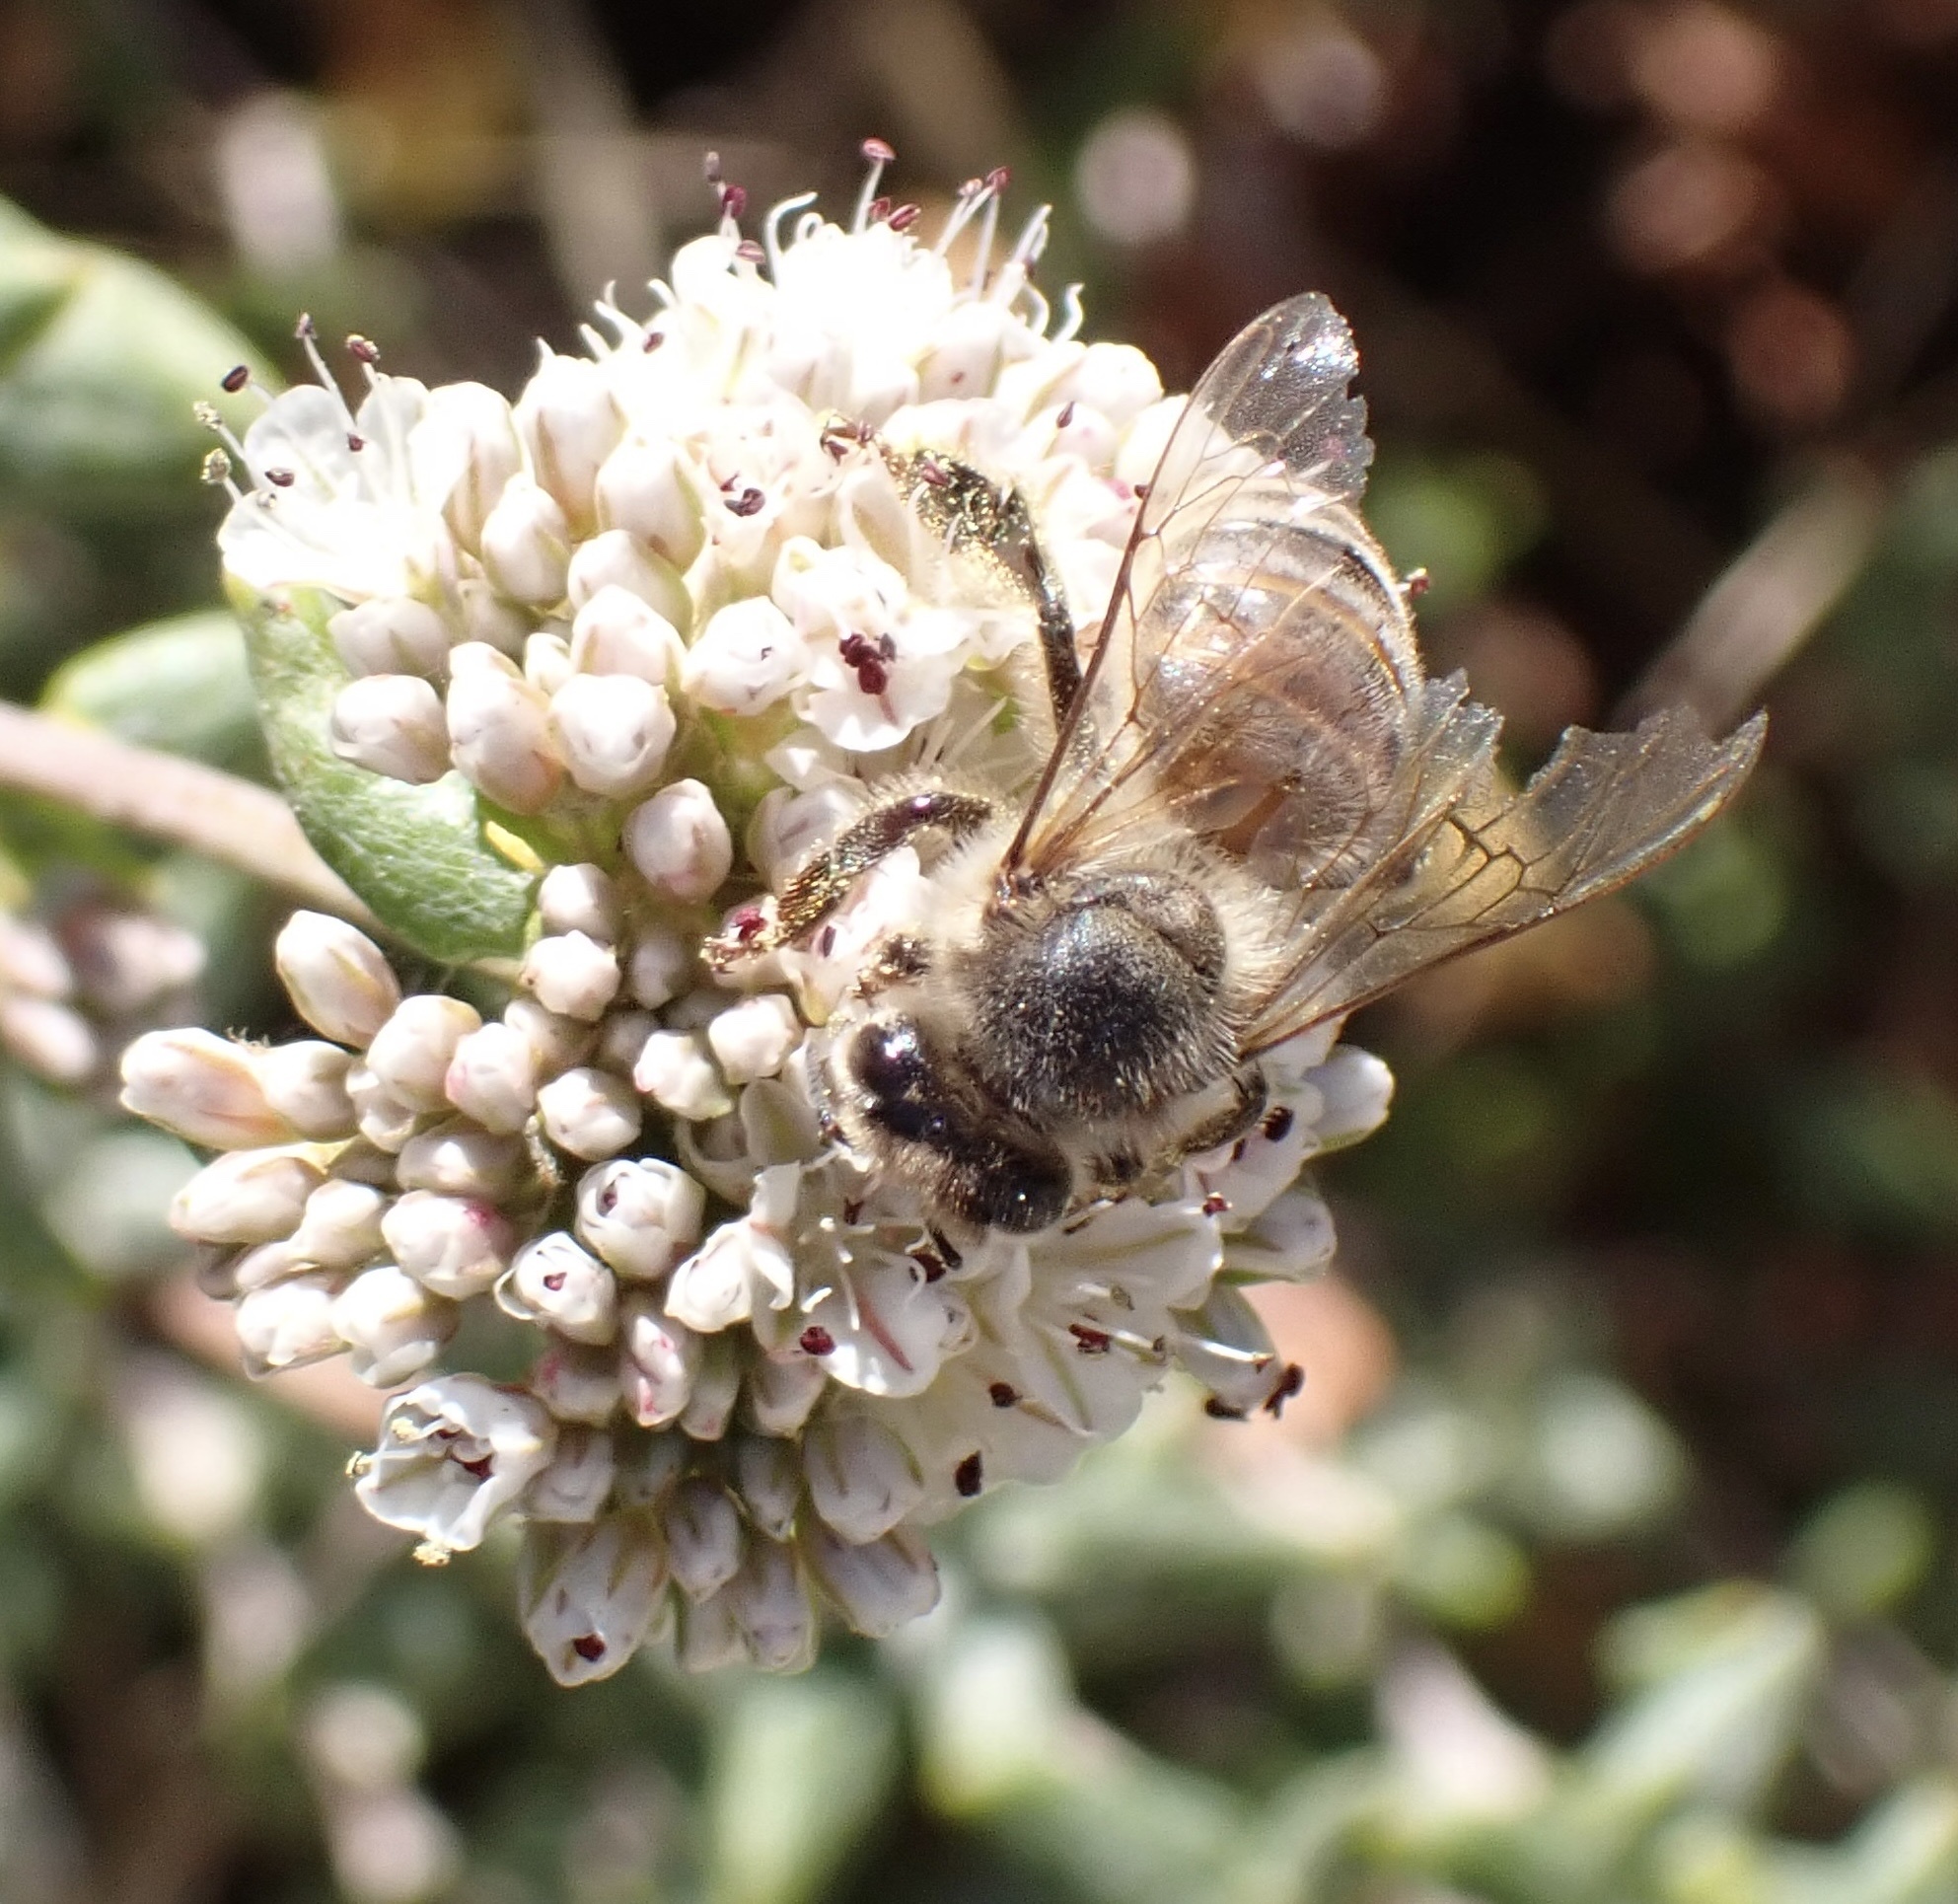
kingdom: Animalia
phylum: Arthropoda
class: Insecta
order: Hymenoptera
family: Apidae
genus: Apis
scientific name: Apis mellifera
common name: Honey bee
